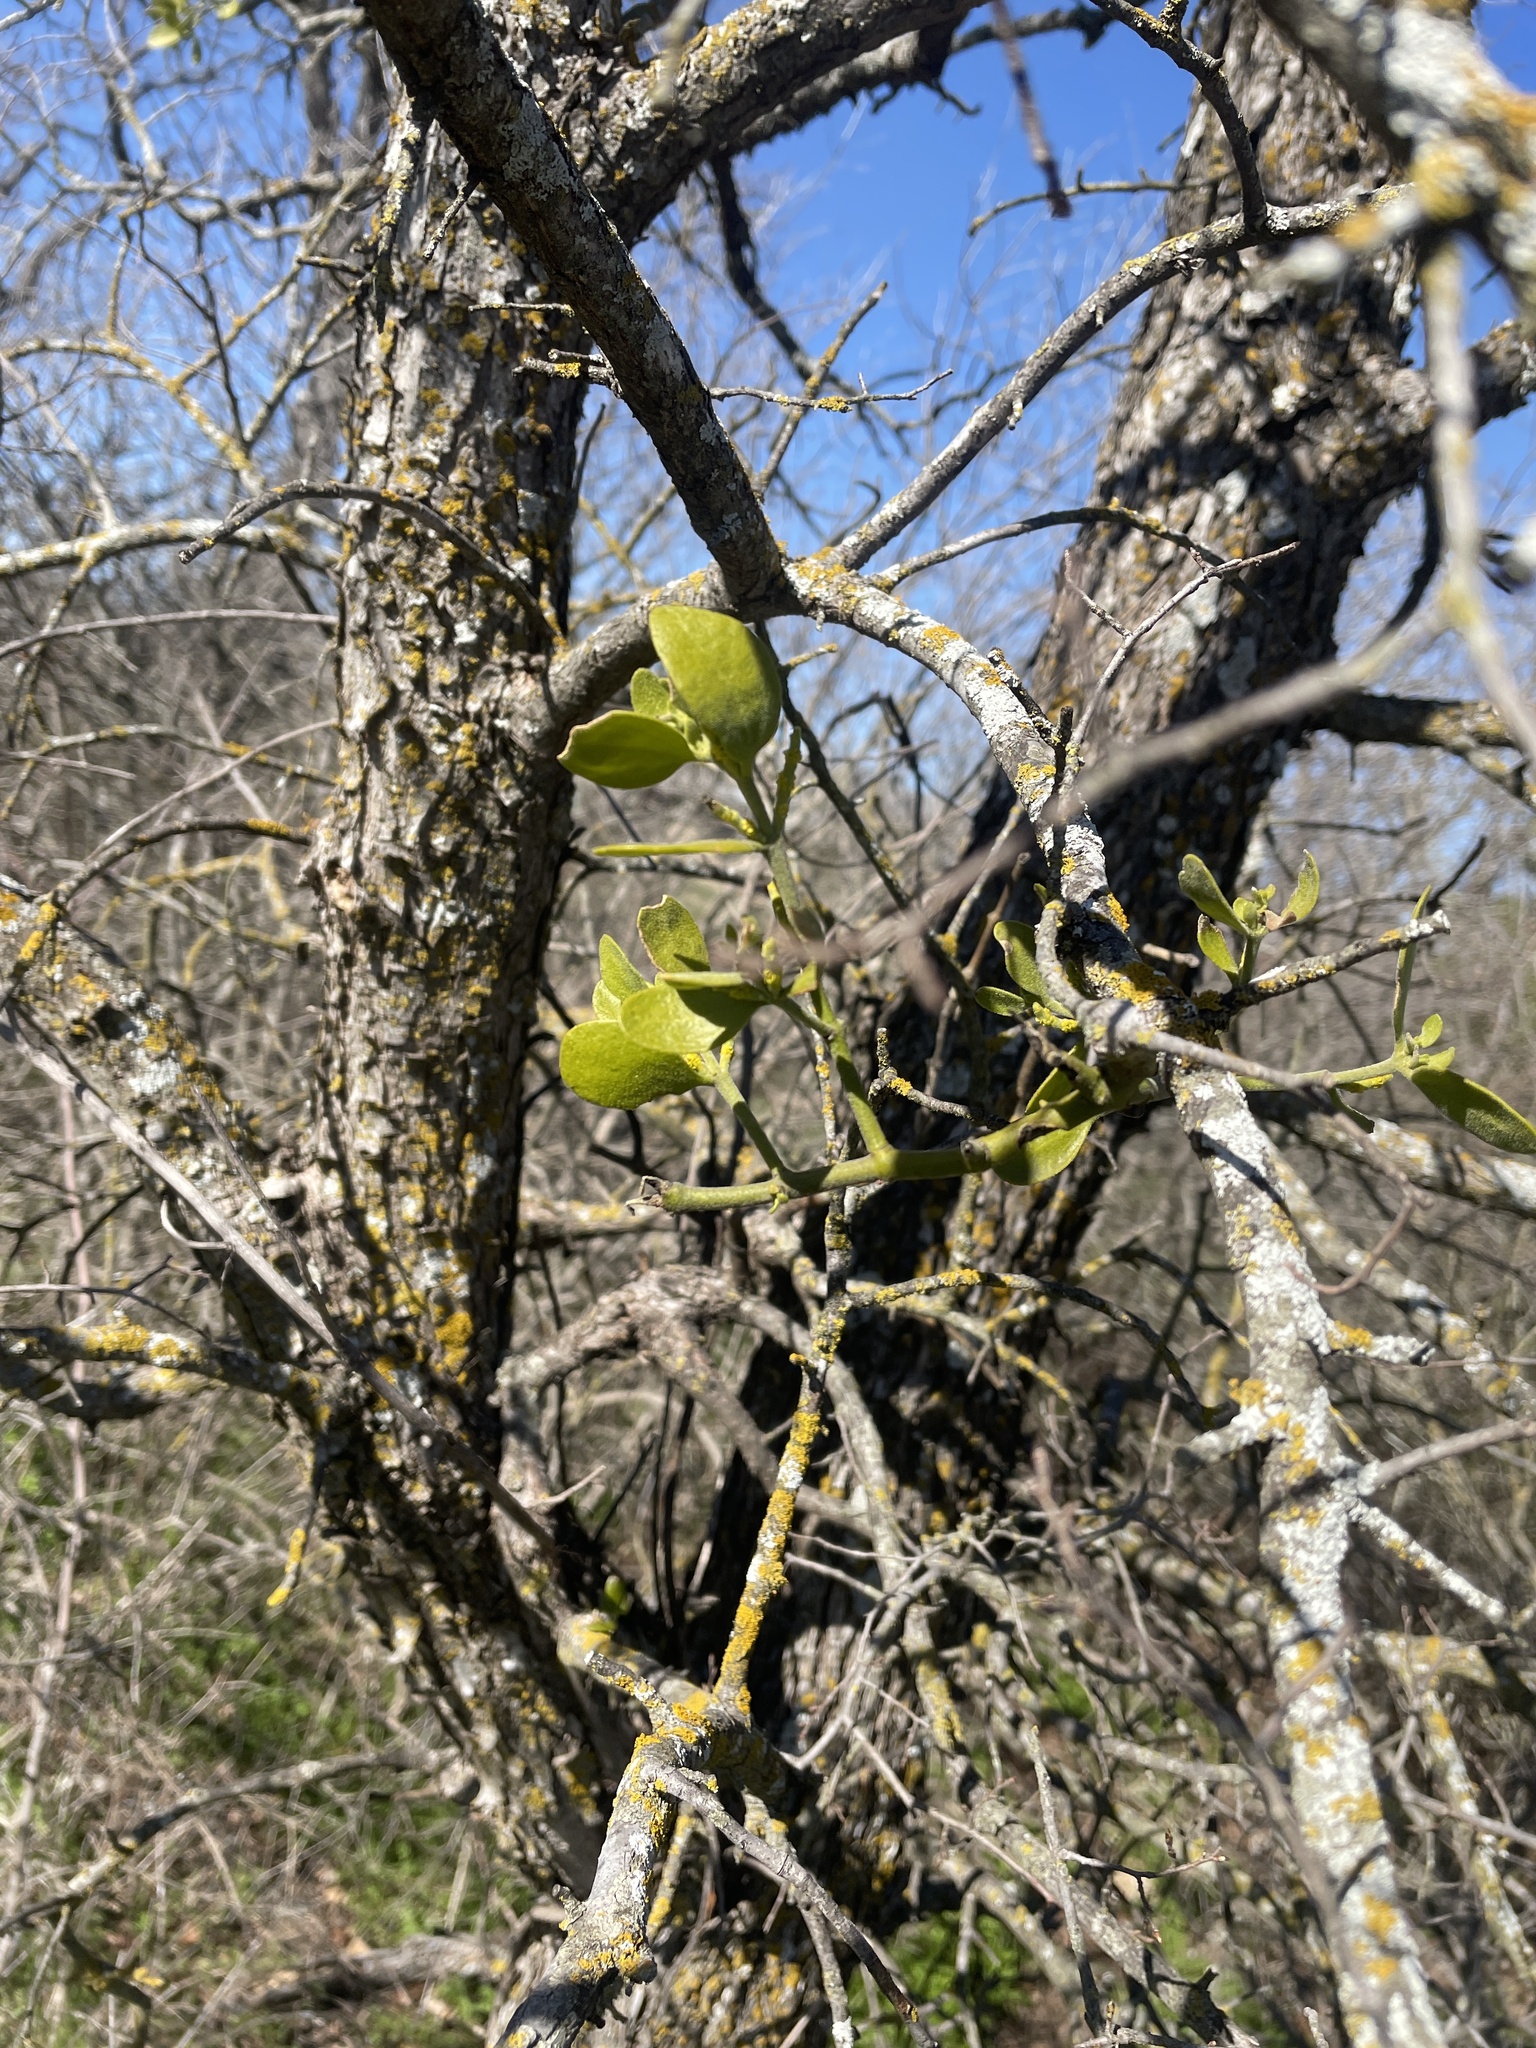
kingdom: Plantae
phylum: Tracheophyta
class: Magnoliopsida
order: Santalales
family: Viscaceae
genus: Phoradendron
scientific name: Phoradendron leucarpum
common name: Pacific mistletoe
